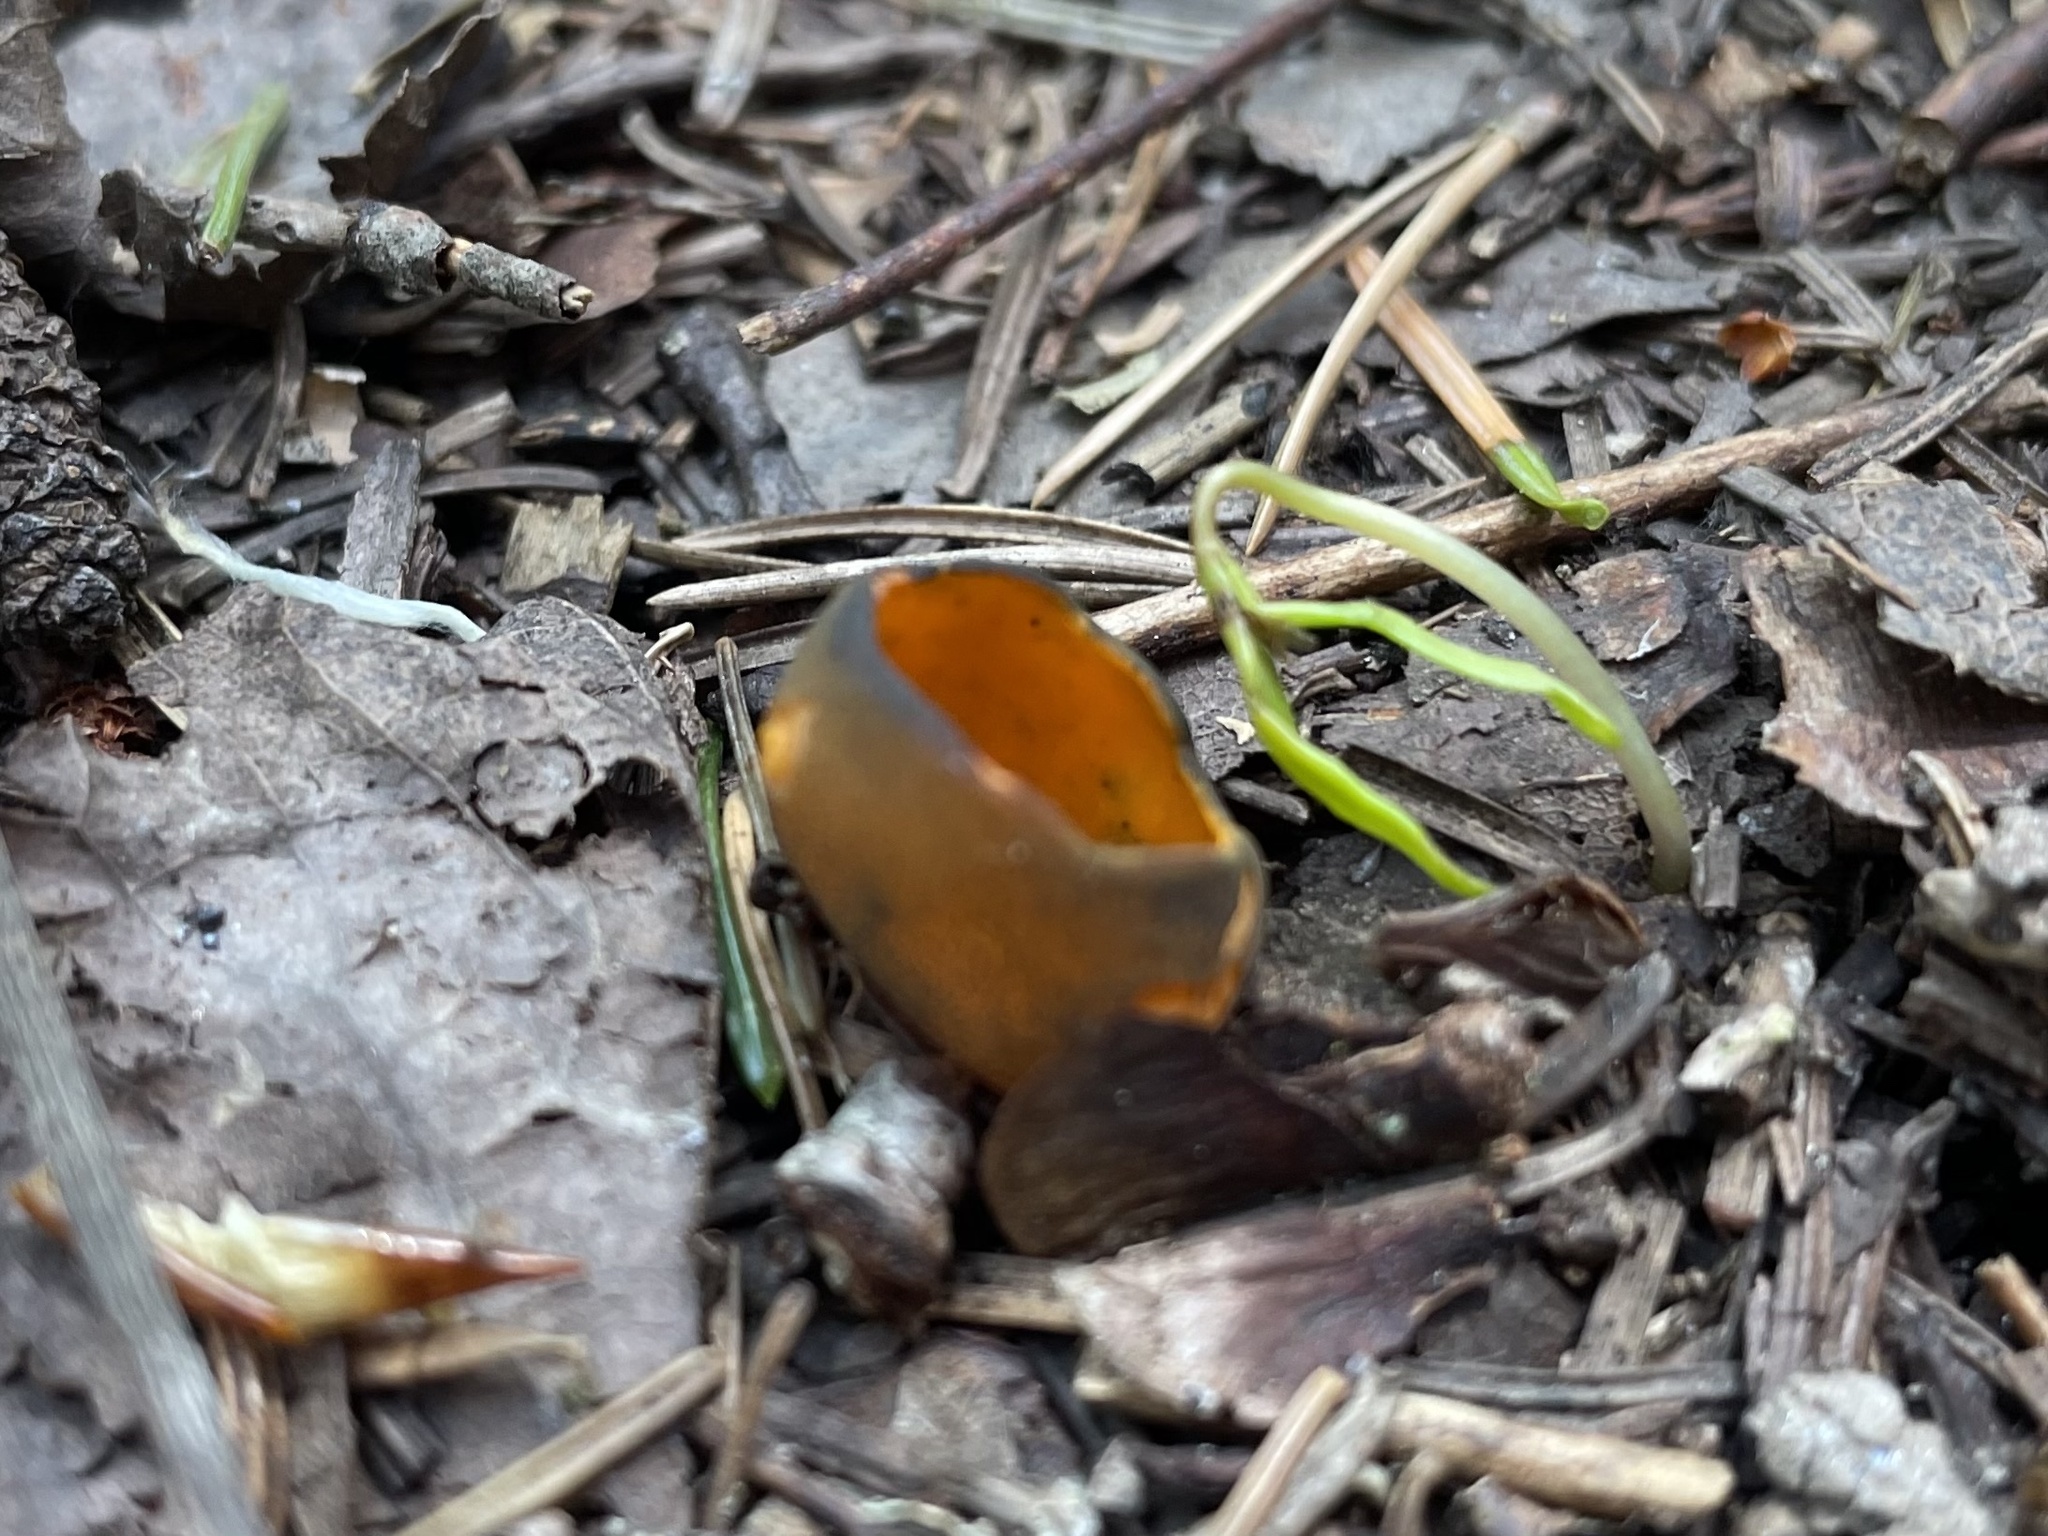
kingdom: Fungi
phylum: Ascomycota
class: Pezizomycetes
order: Pezizales
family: Caloscyphaceae
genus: Caloscypha
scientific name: Caloscypha fulgens
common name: Golden cup
